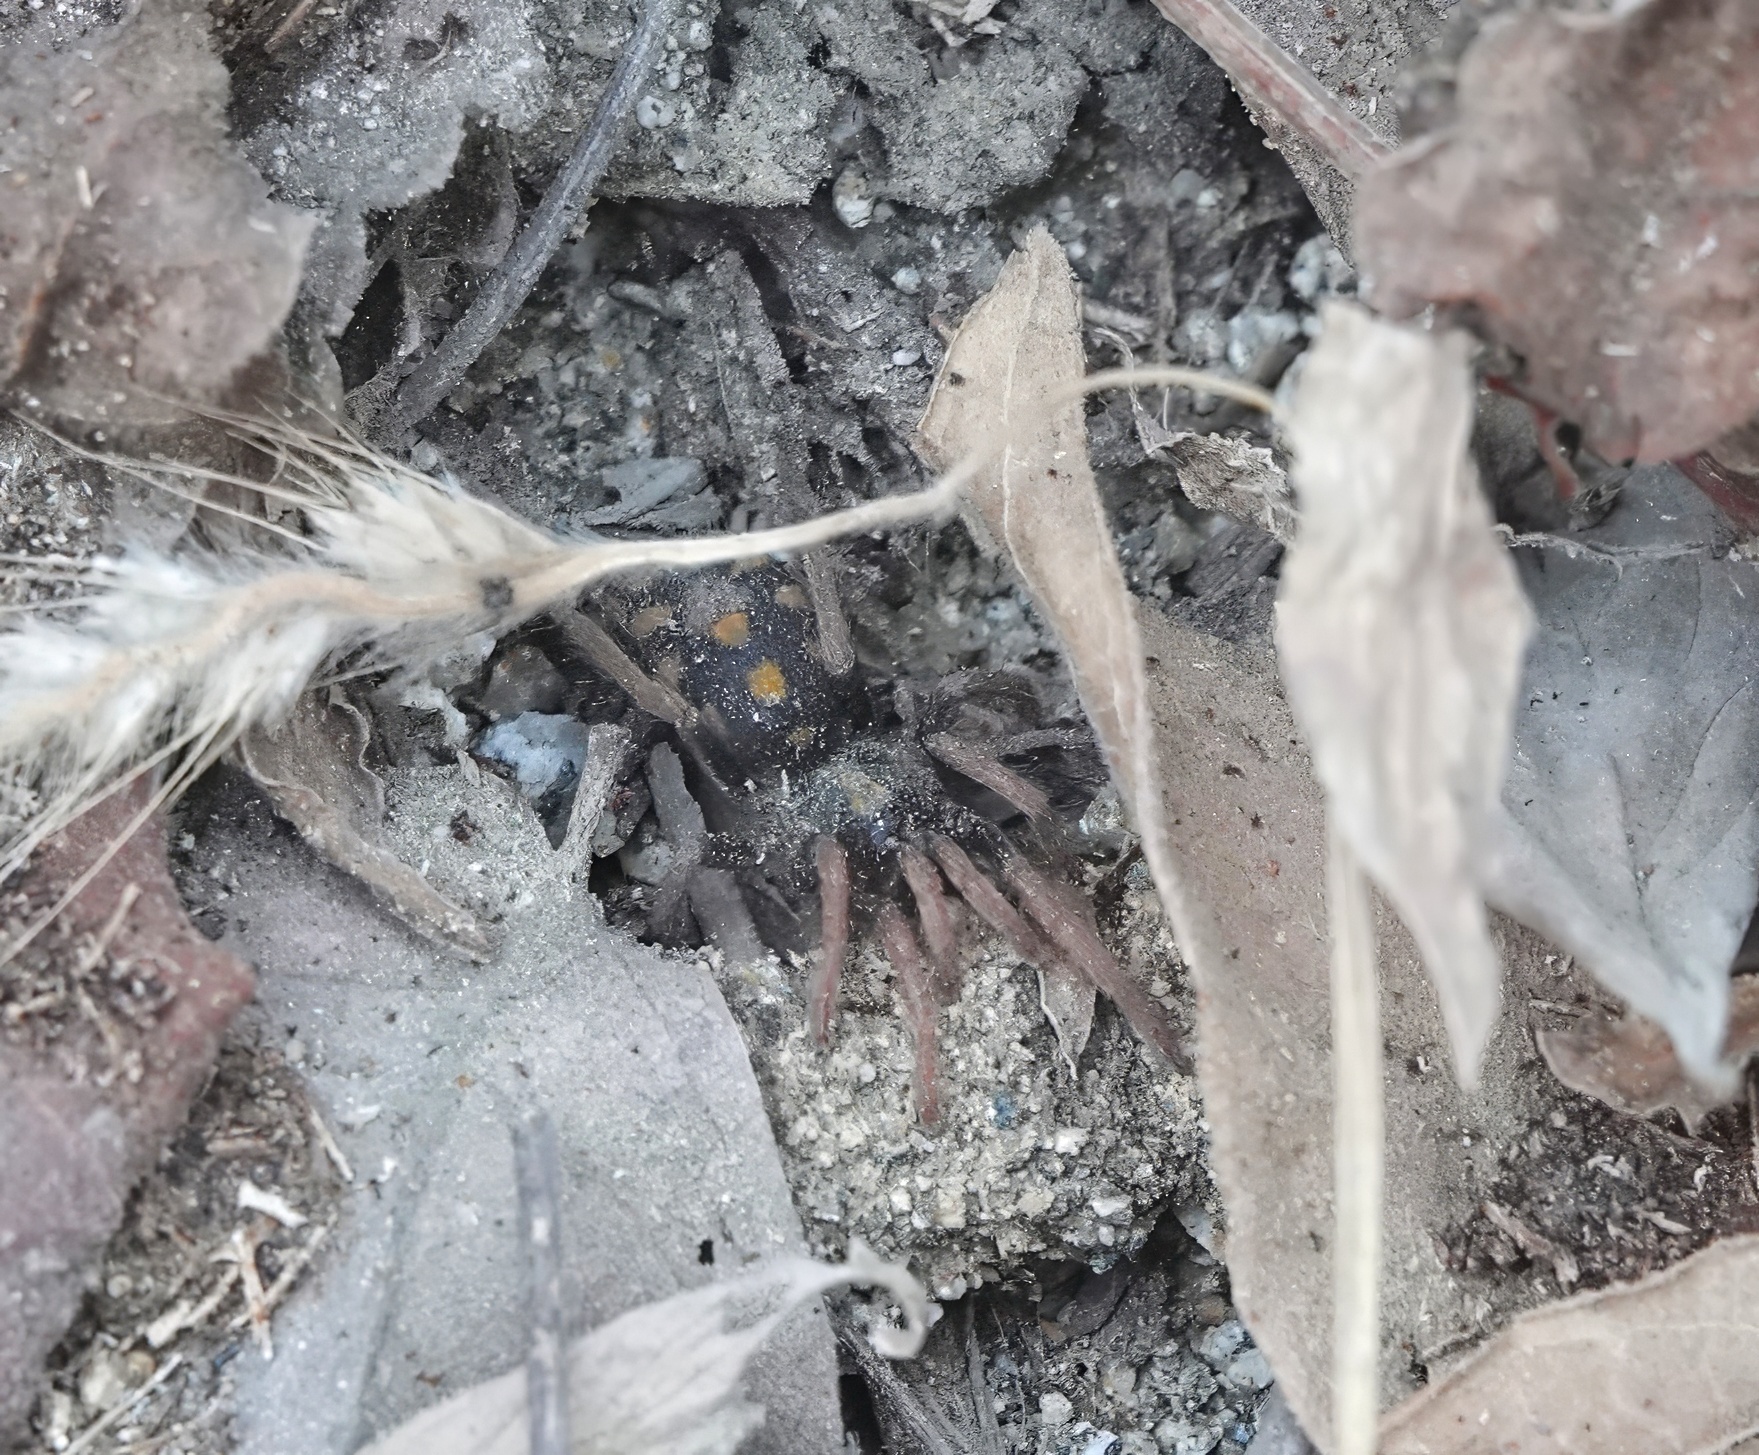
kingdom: Animalia
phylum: Arthropoda
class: Arachnida
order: Araneae
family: Theraphosidae
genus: Hapalopus
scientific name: Hapalopus formosus
